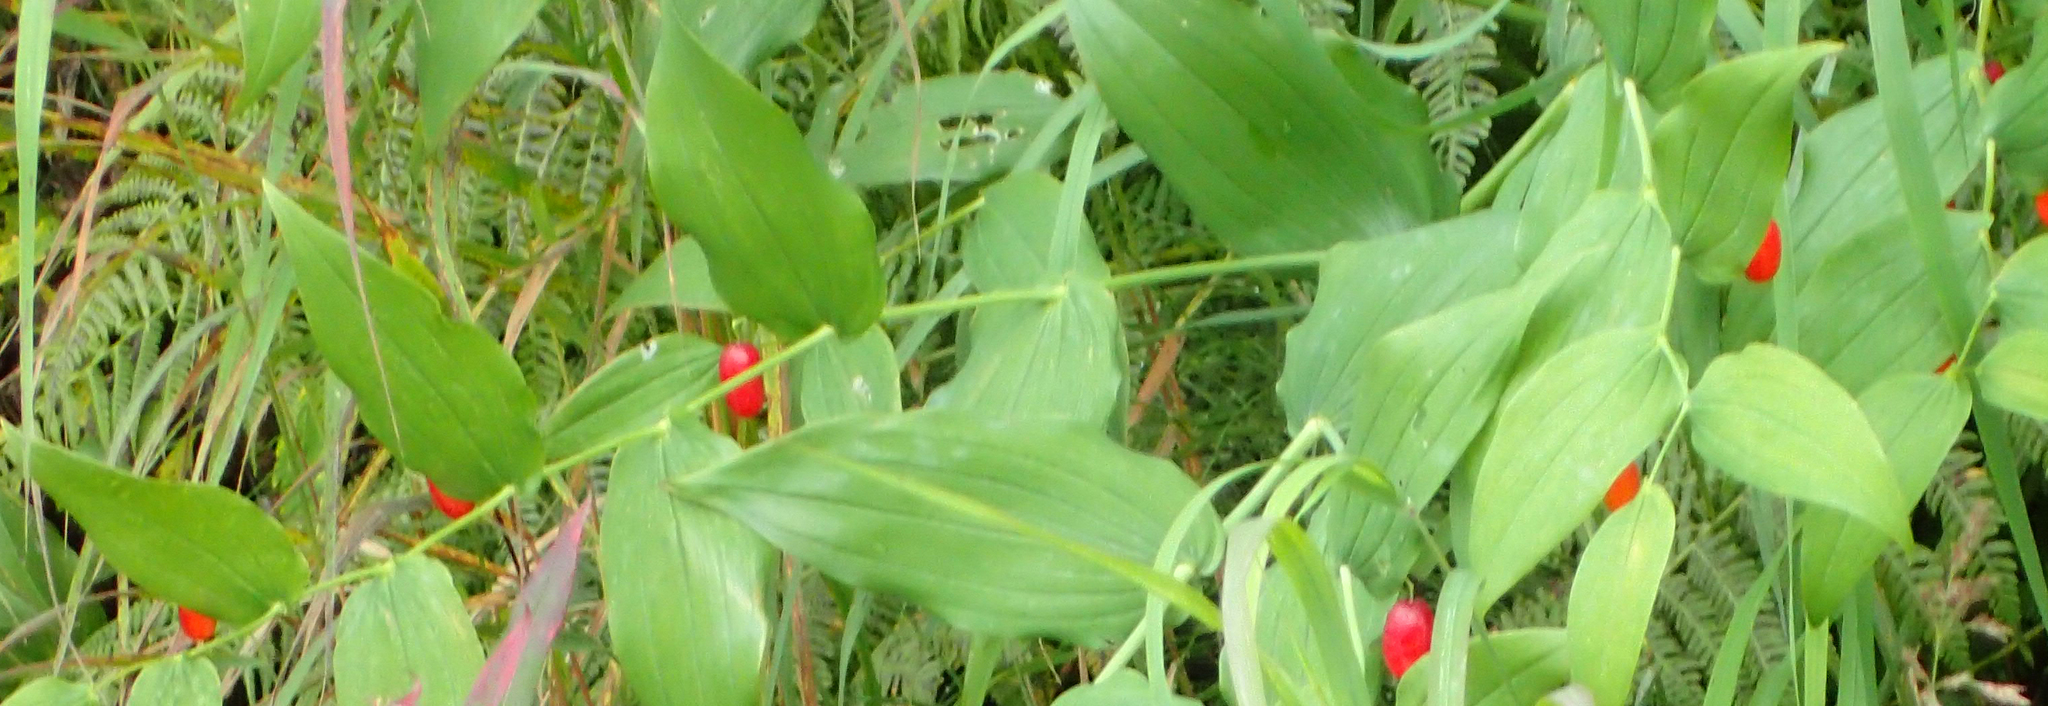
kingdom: Plantae
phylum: Tracheophyta
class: Liliopsida
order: Liliales
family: Liliaceae
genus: Streptopus
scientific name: Streptopus amplexifolius
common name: Clasp twisted stalk
